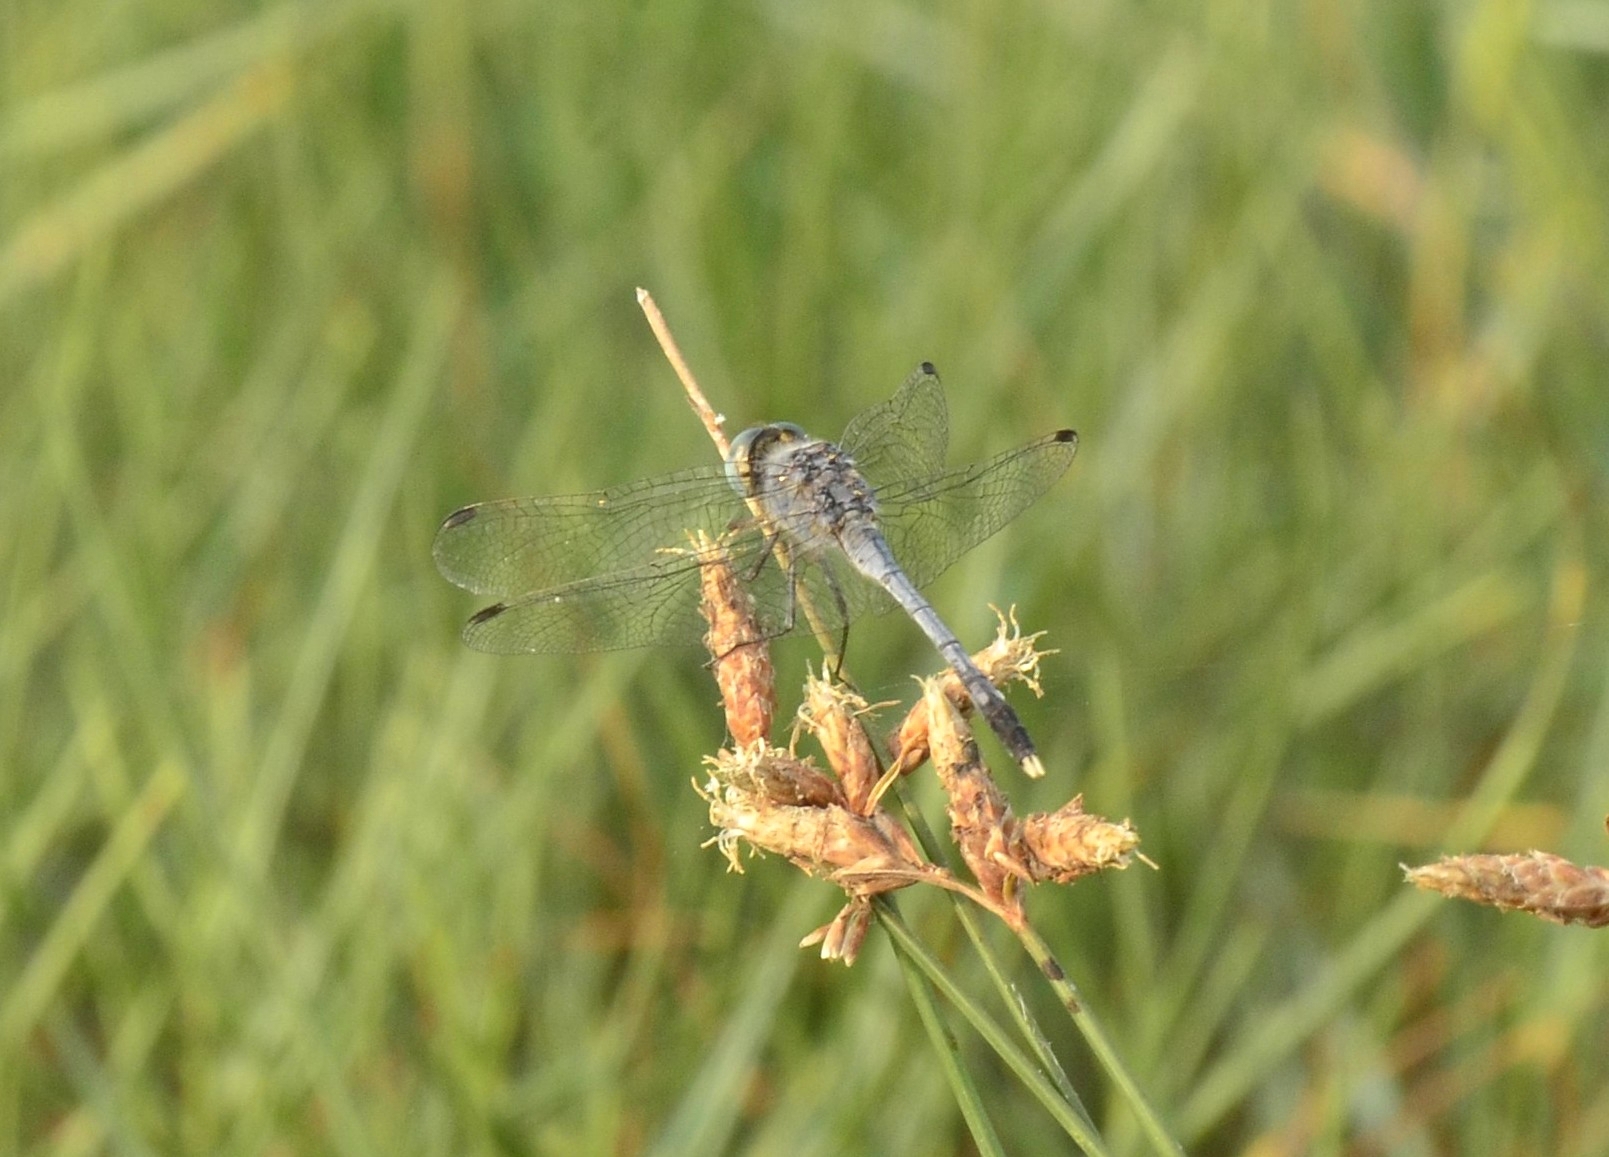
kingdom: Animalia
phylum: Arthropoda
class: Insecta
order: Odonata
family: Libellulidae
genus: Diplacodes
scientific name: Diplacodes trivialis
